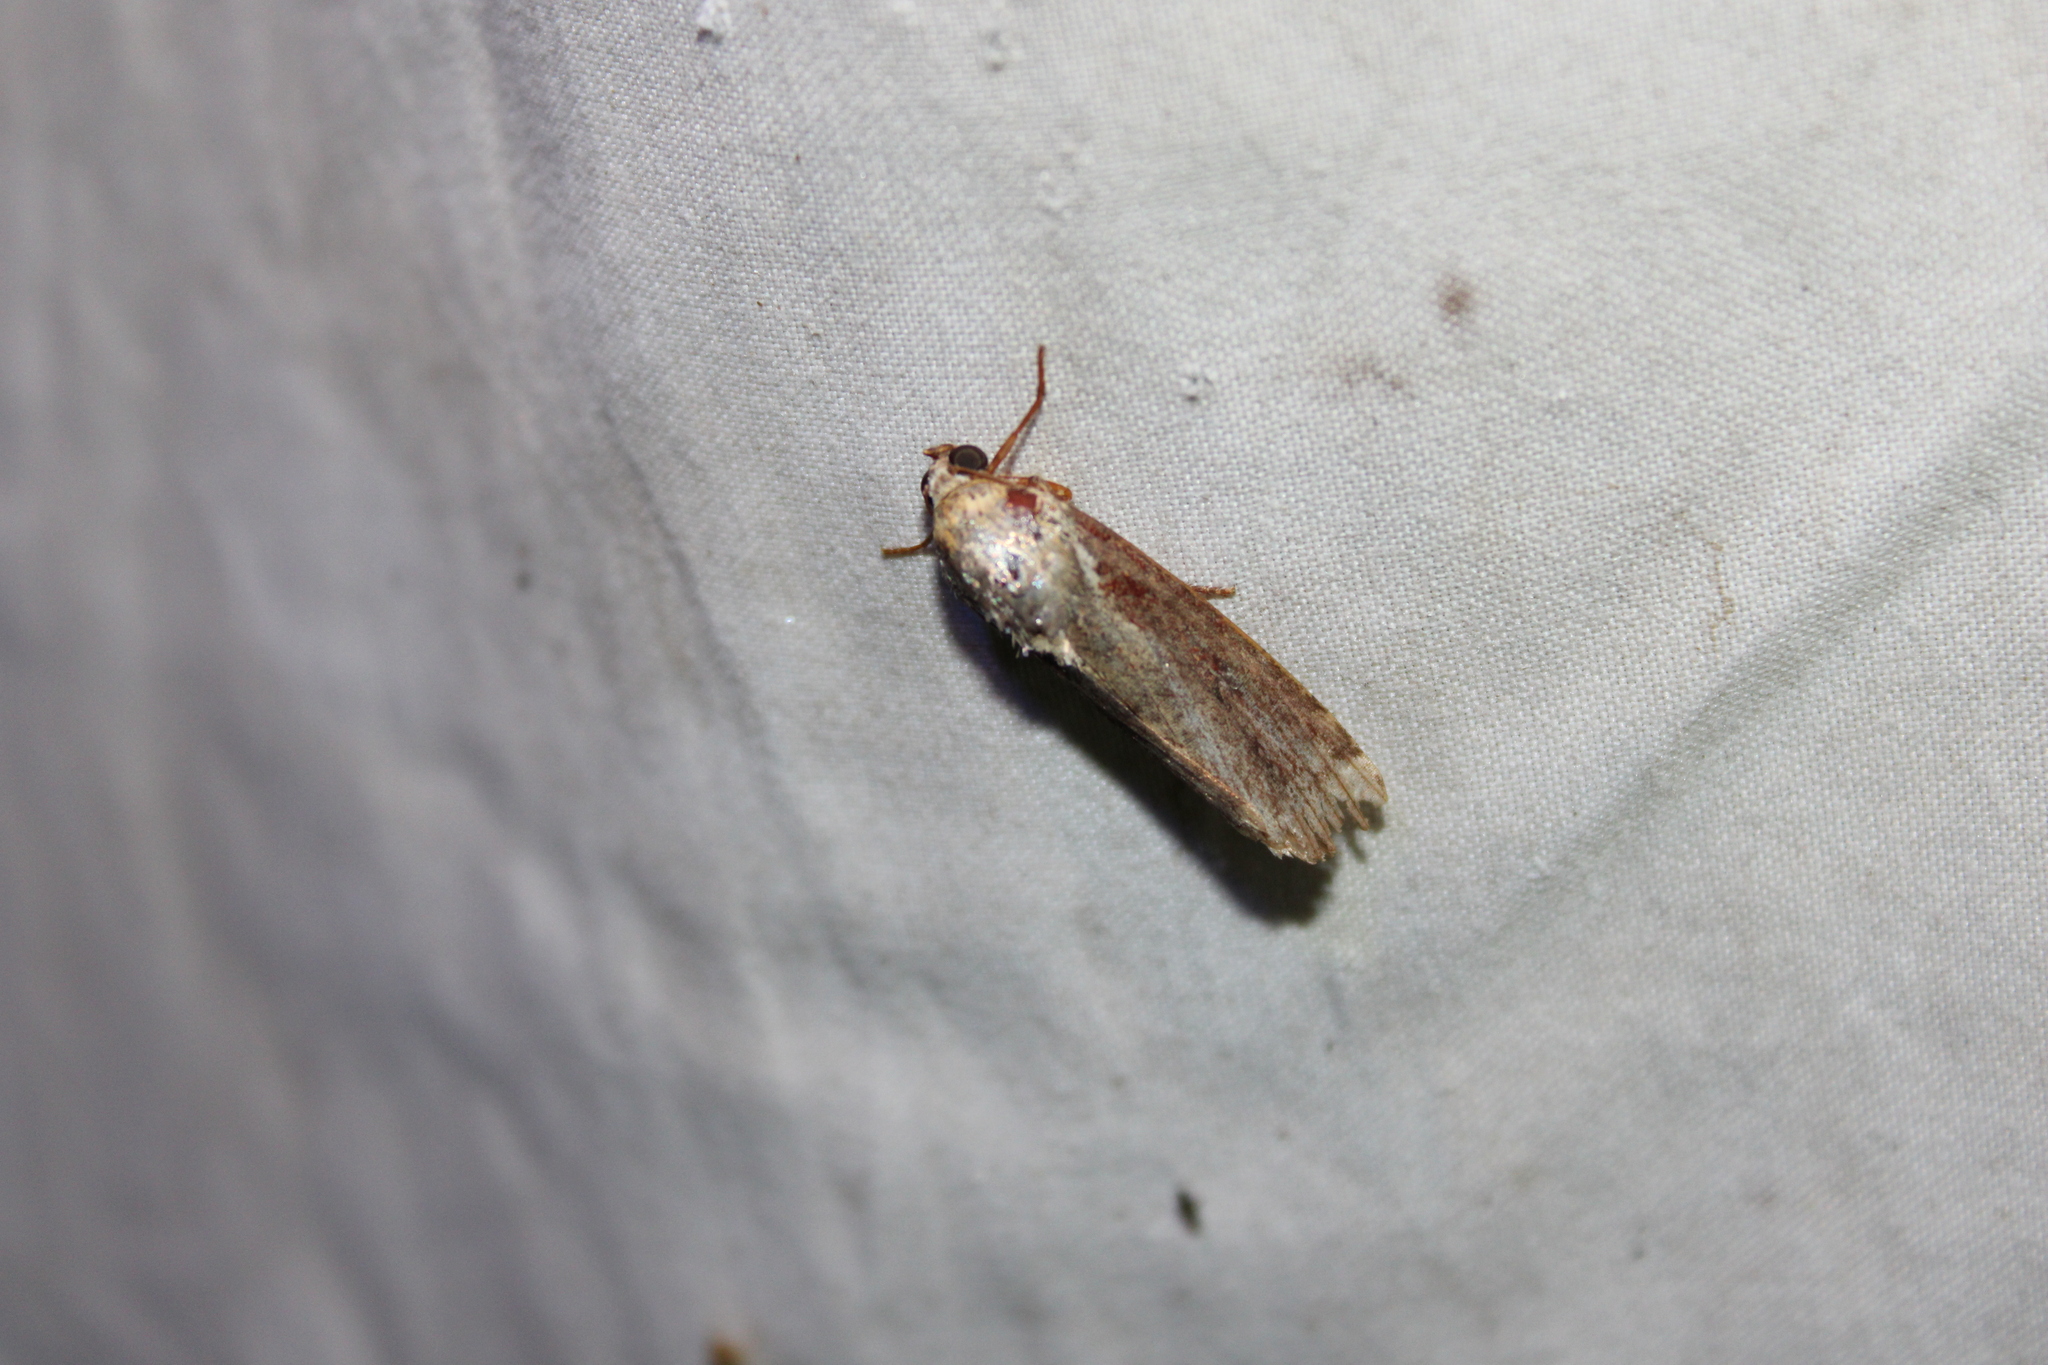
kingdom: Animalia
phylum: Arthropoda
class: Insecta
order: Lepidoptera
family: Noctuidae
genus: Magusa
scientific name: Magusa divaricata
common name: Orb narrow-winged moth
